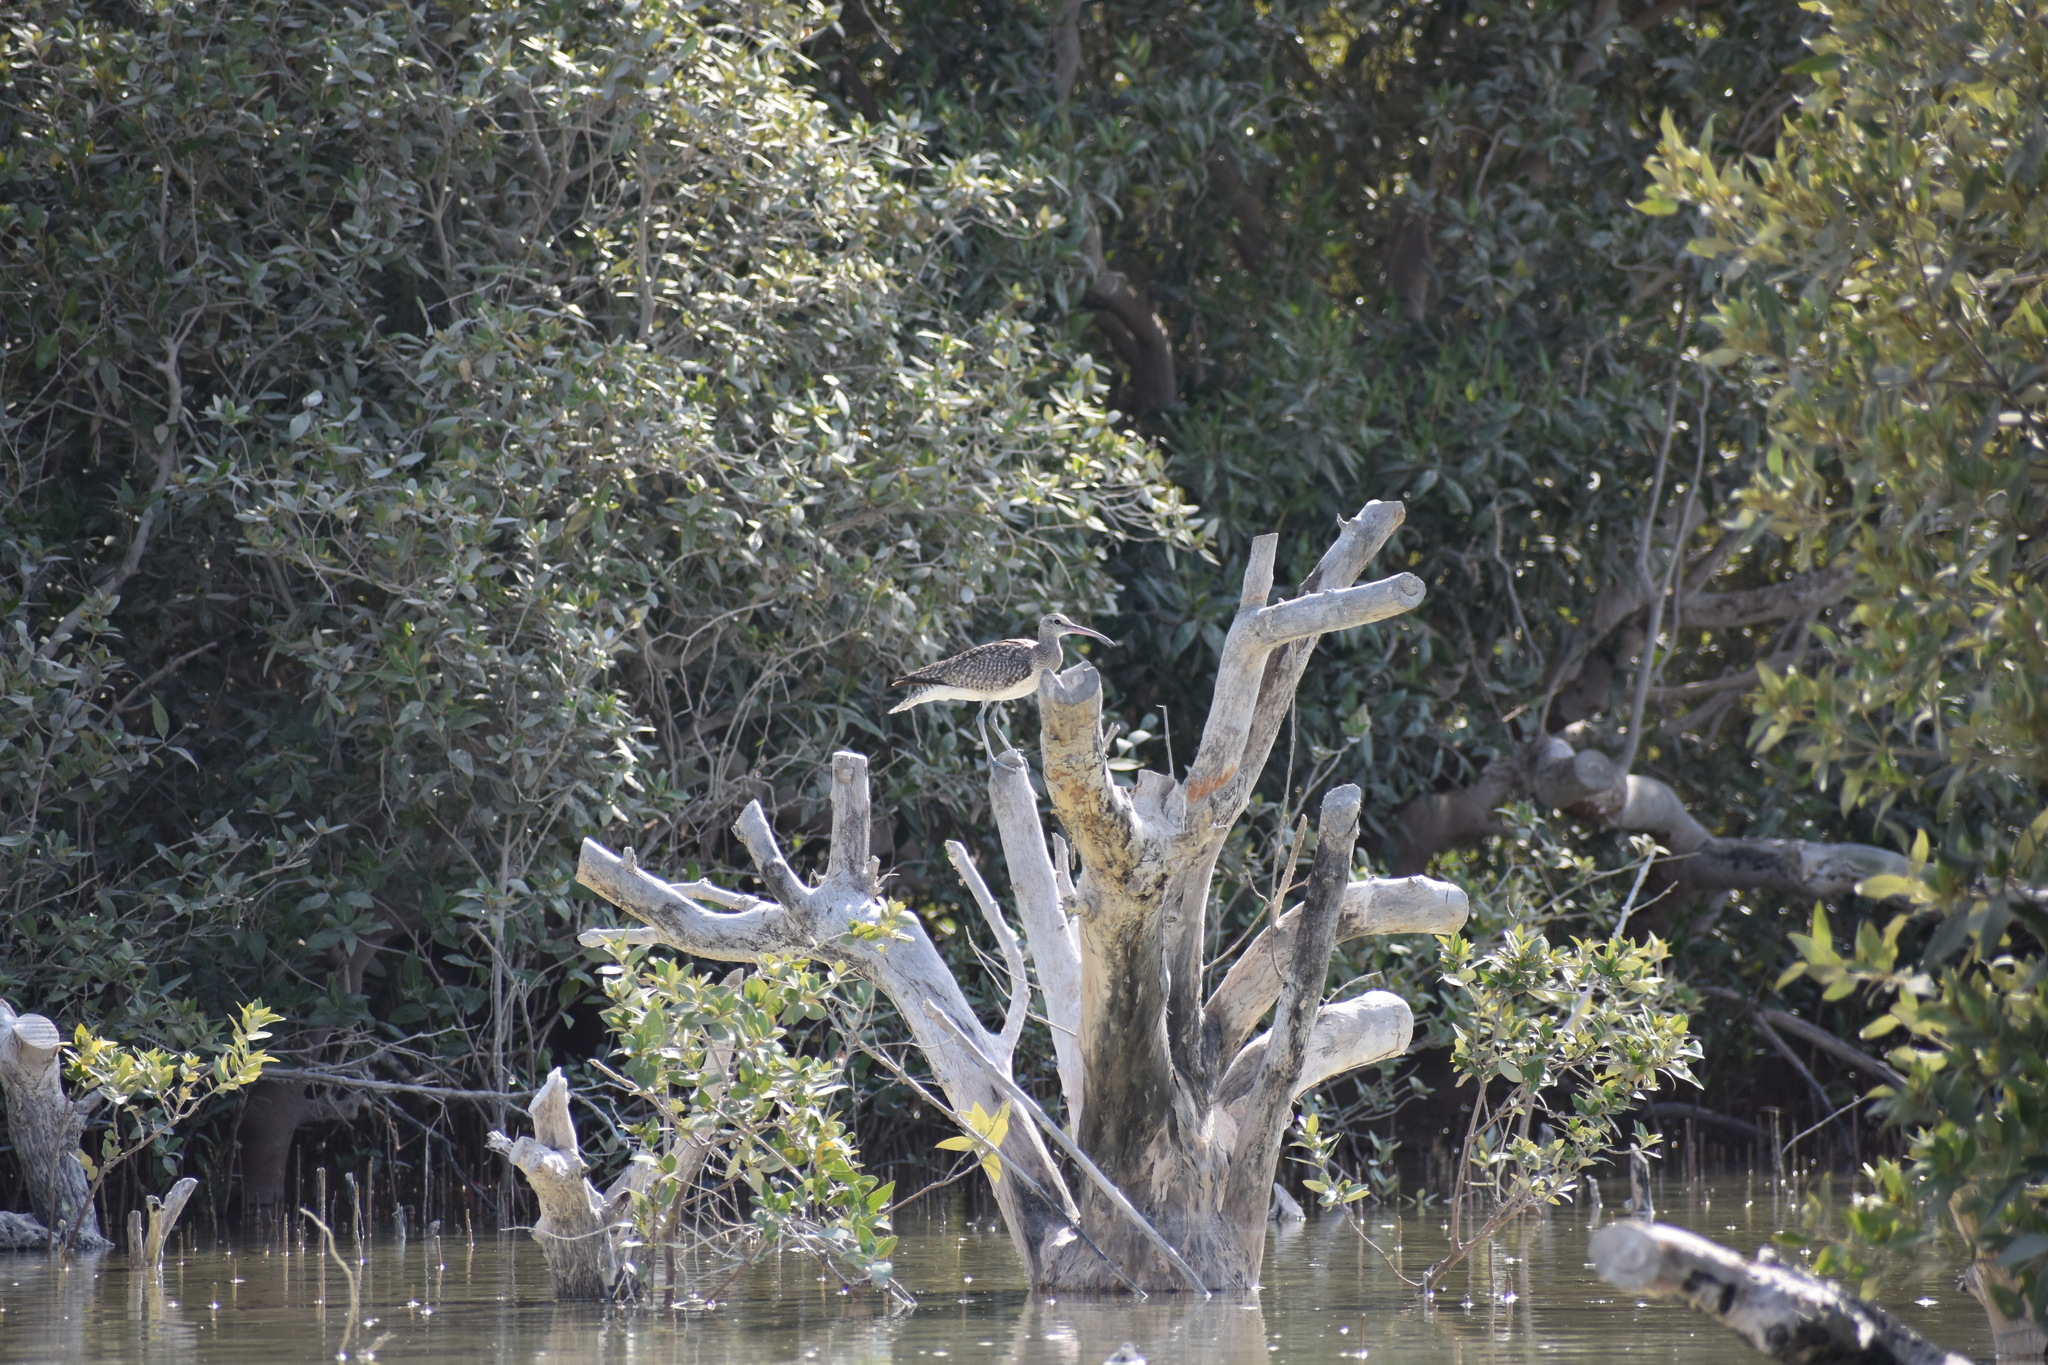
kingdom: Animalia
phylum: Chordata
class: Aves
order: Charadriiformes
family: Scolopacidae
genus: Numenius
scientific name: Numenius phaeopus
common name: Whimbrel
